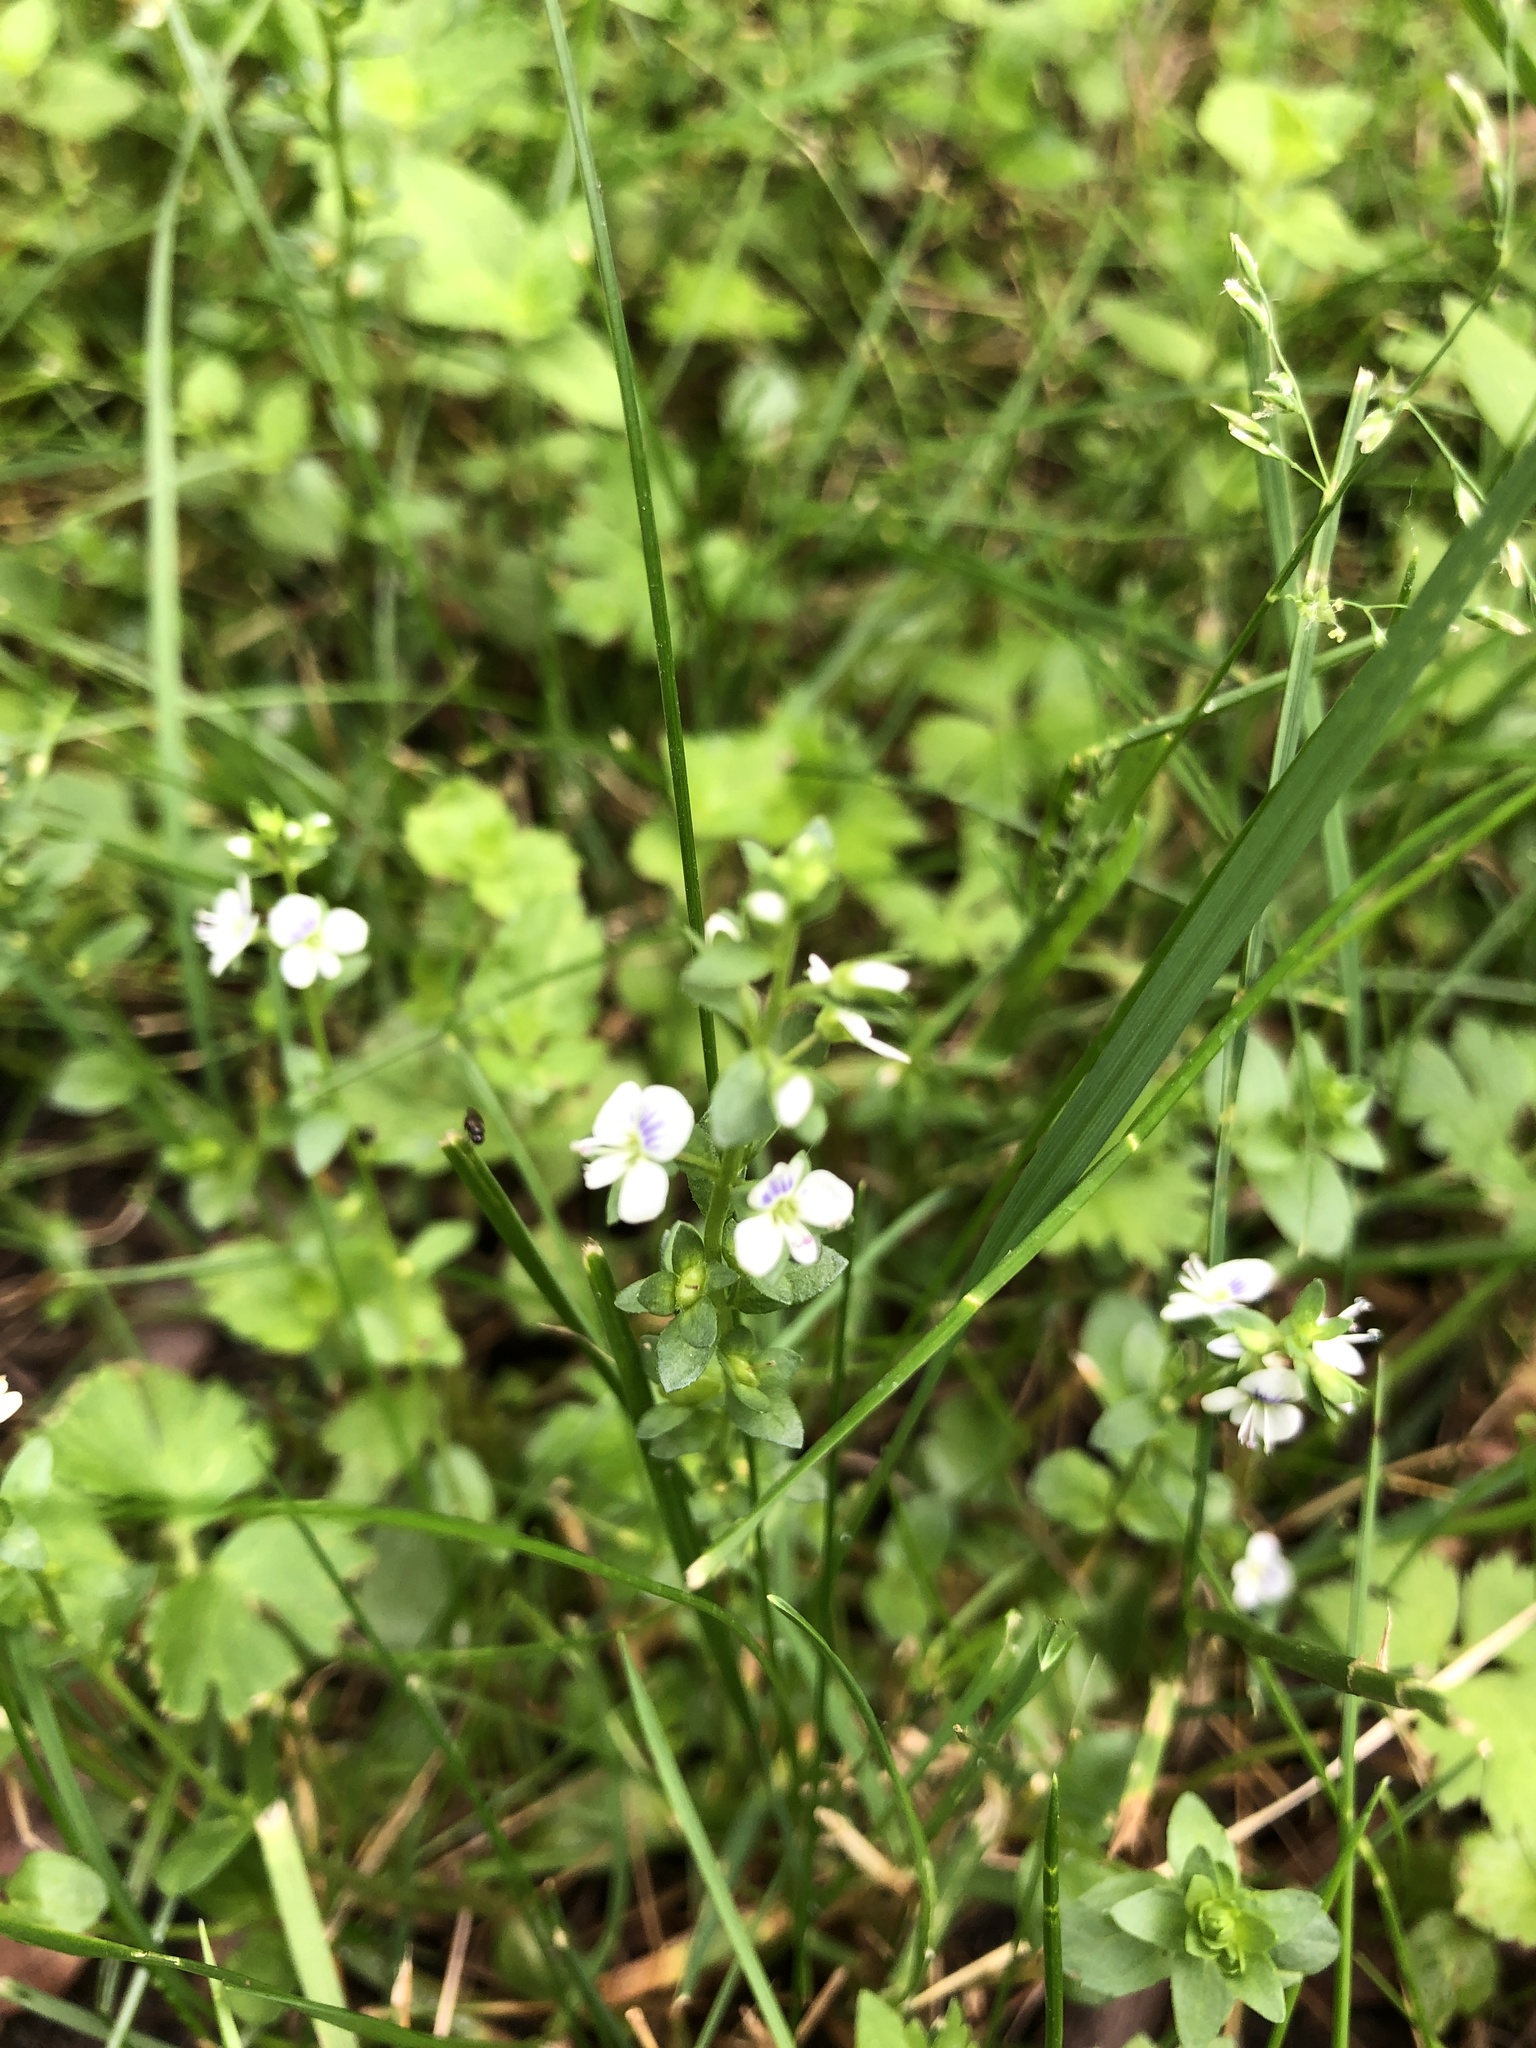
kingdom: Plantae
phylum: Tracheophyta
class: Magnoliopsida
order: Lamiales
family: Plantaginaceae
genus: Veronica
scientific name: Veronica serpyllifolia
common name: Thyme-leaved speedwell
